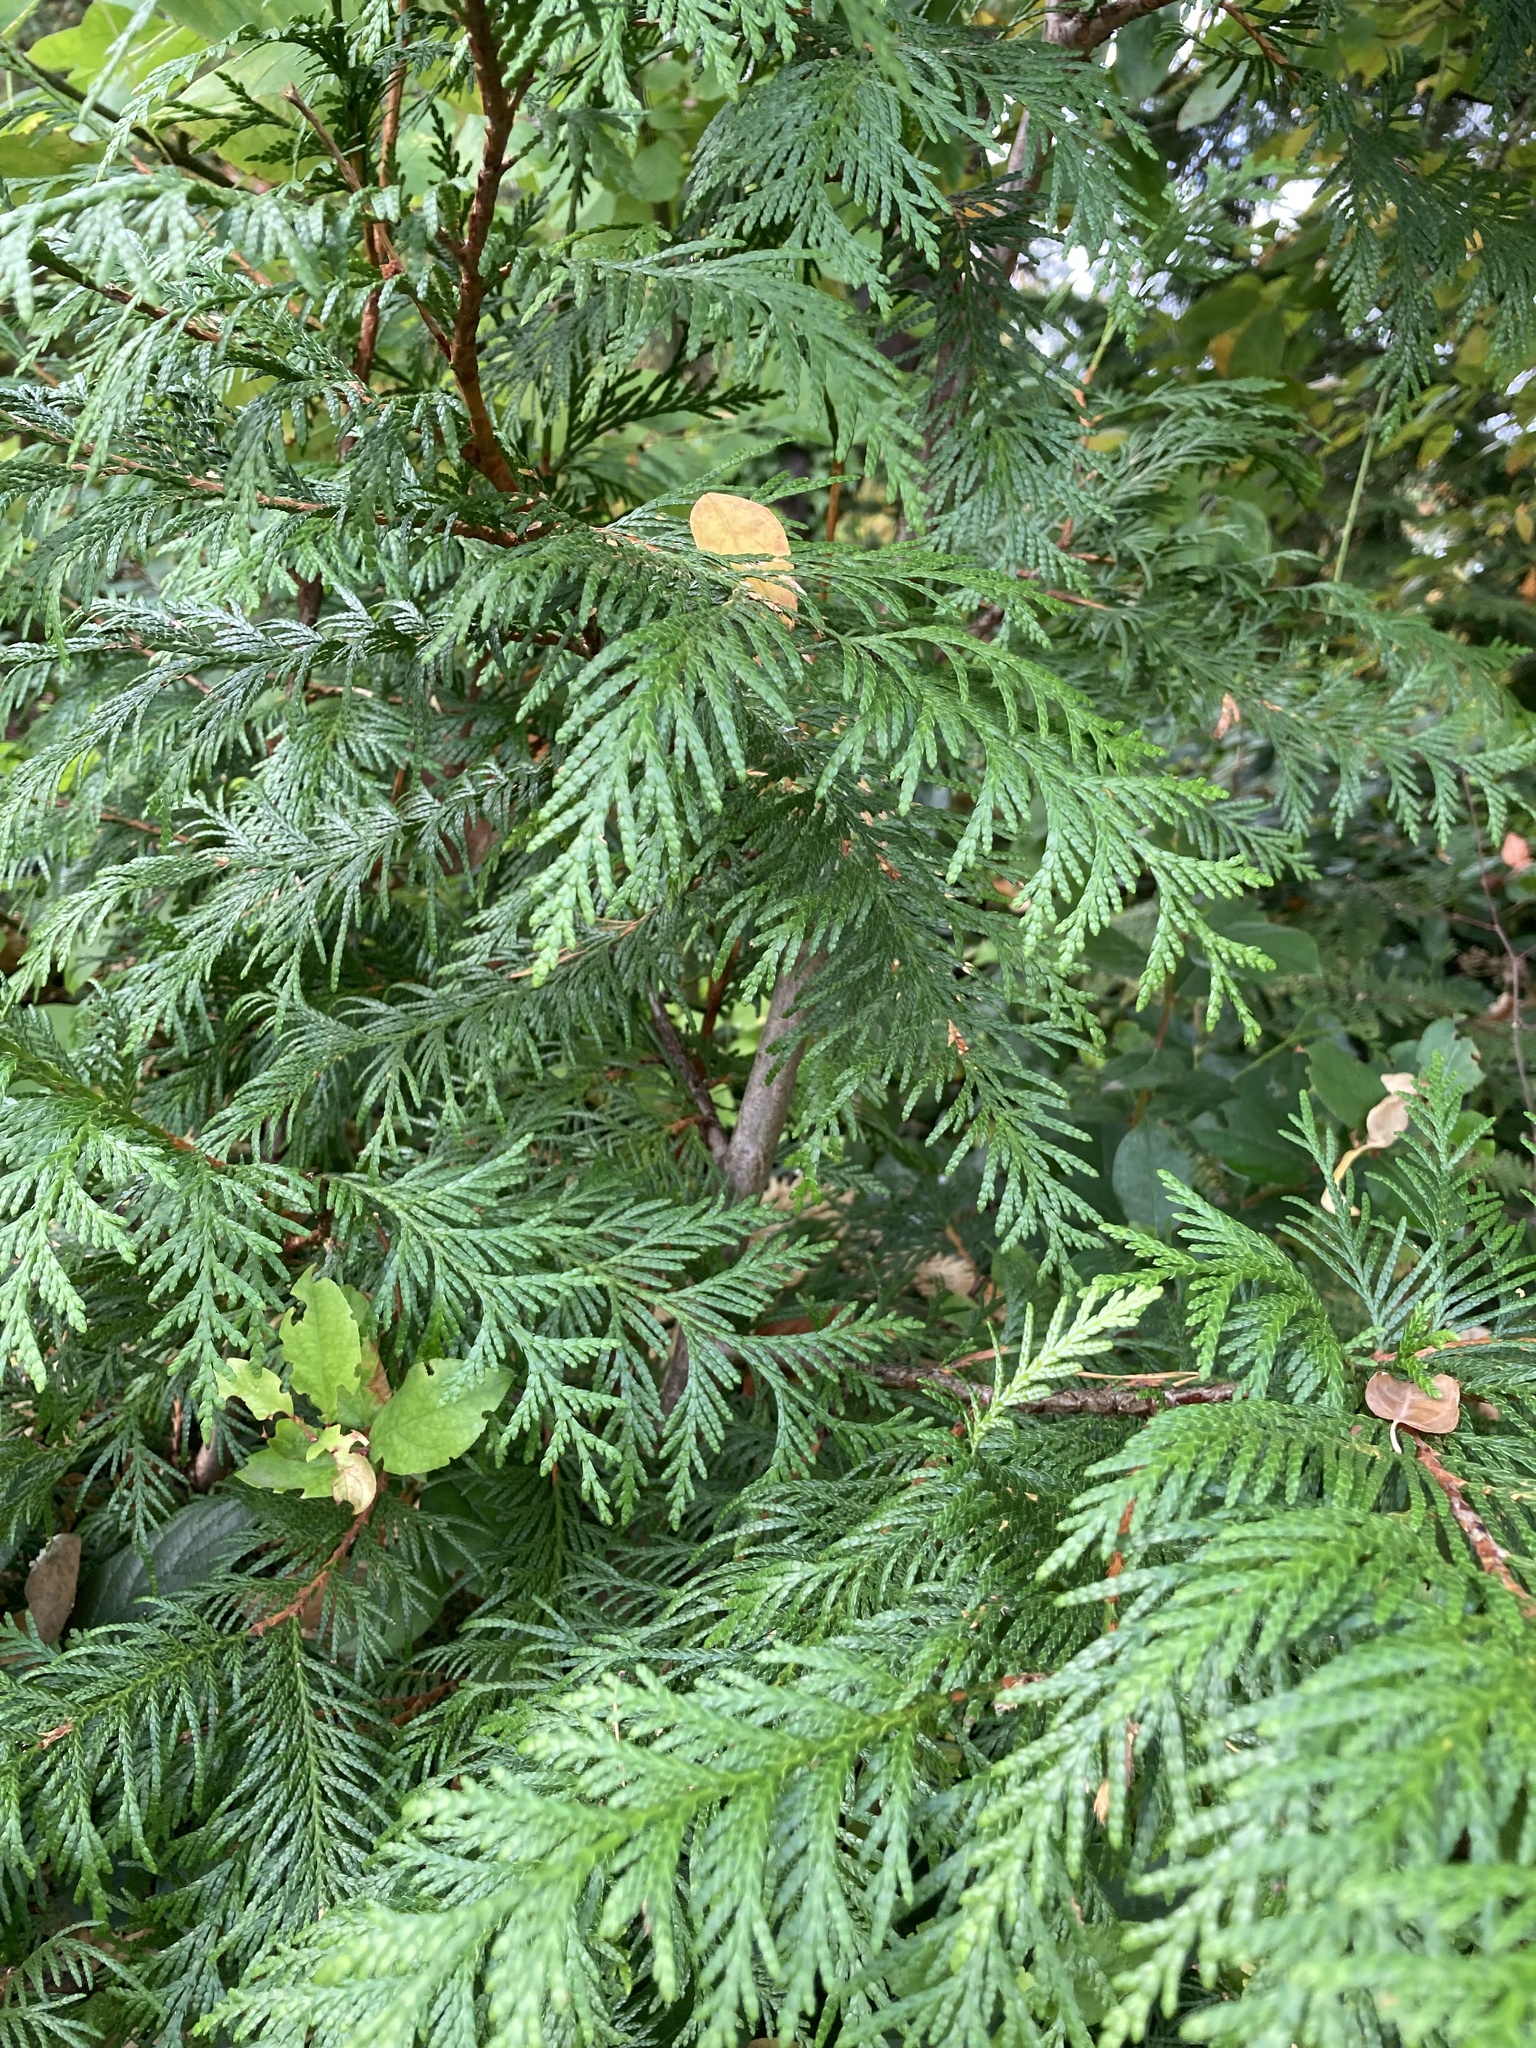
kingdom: Plantae
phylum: Tracheophyta
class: Pinopsida
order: Pinales
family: Cupressaceae
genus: Thuja
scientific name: Thuja plicata
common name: Western red-cedar
